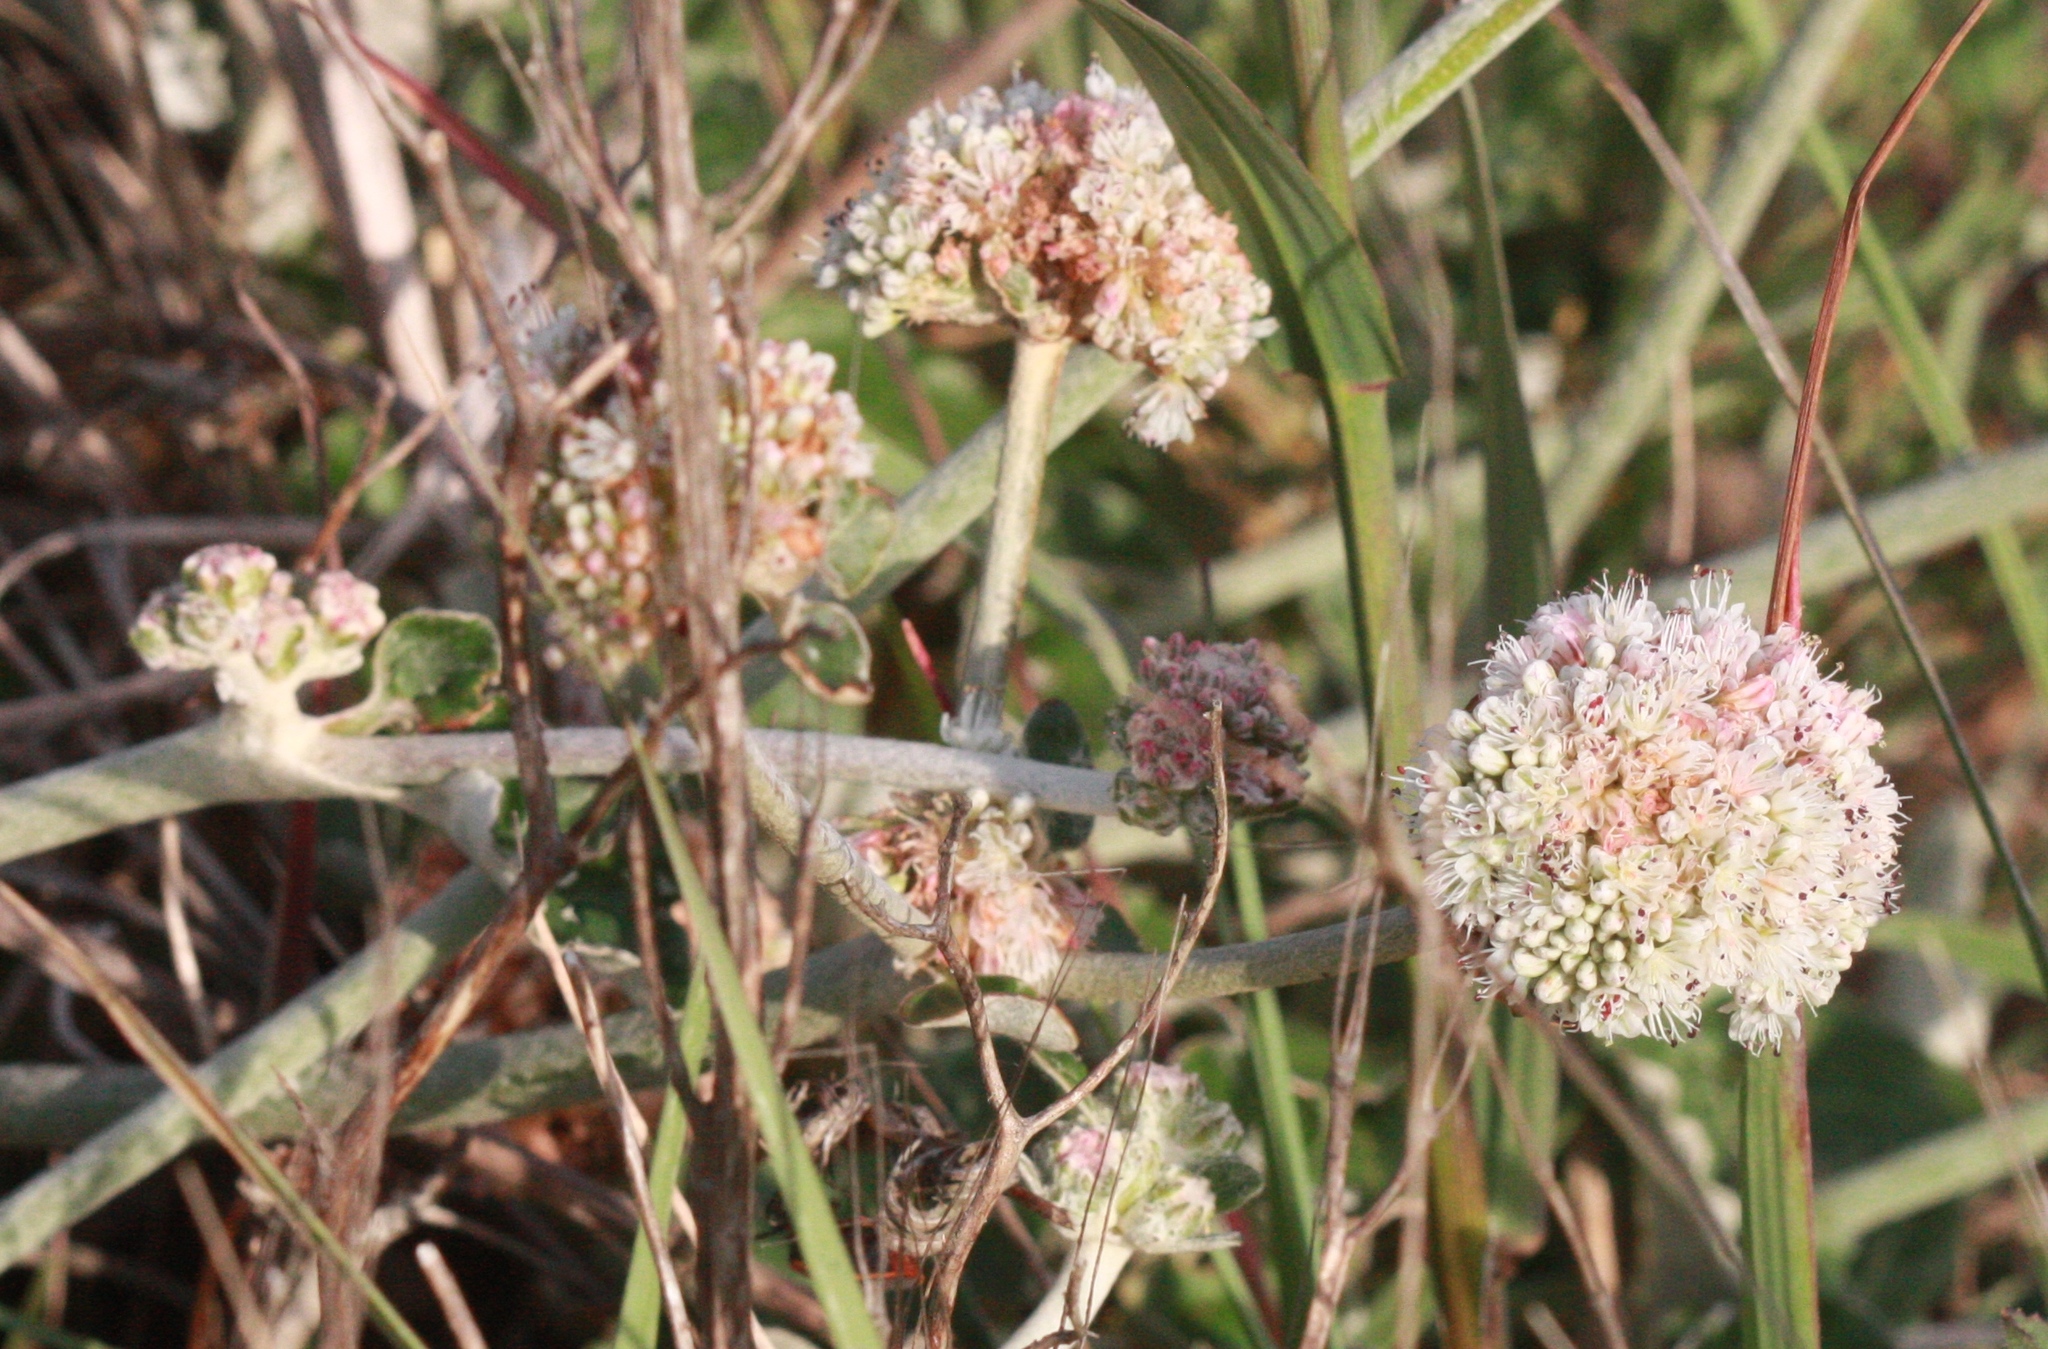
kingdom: Plantae
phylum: Tracheophyta
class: Magnoliopsida
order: Caryophyllales
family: Polygonaceae
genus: Eriogonum
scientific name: Eriogonum latifolium
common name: Seaside wild buckwheat
